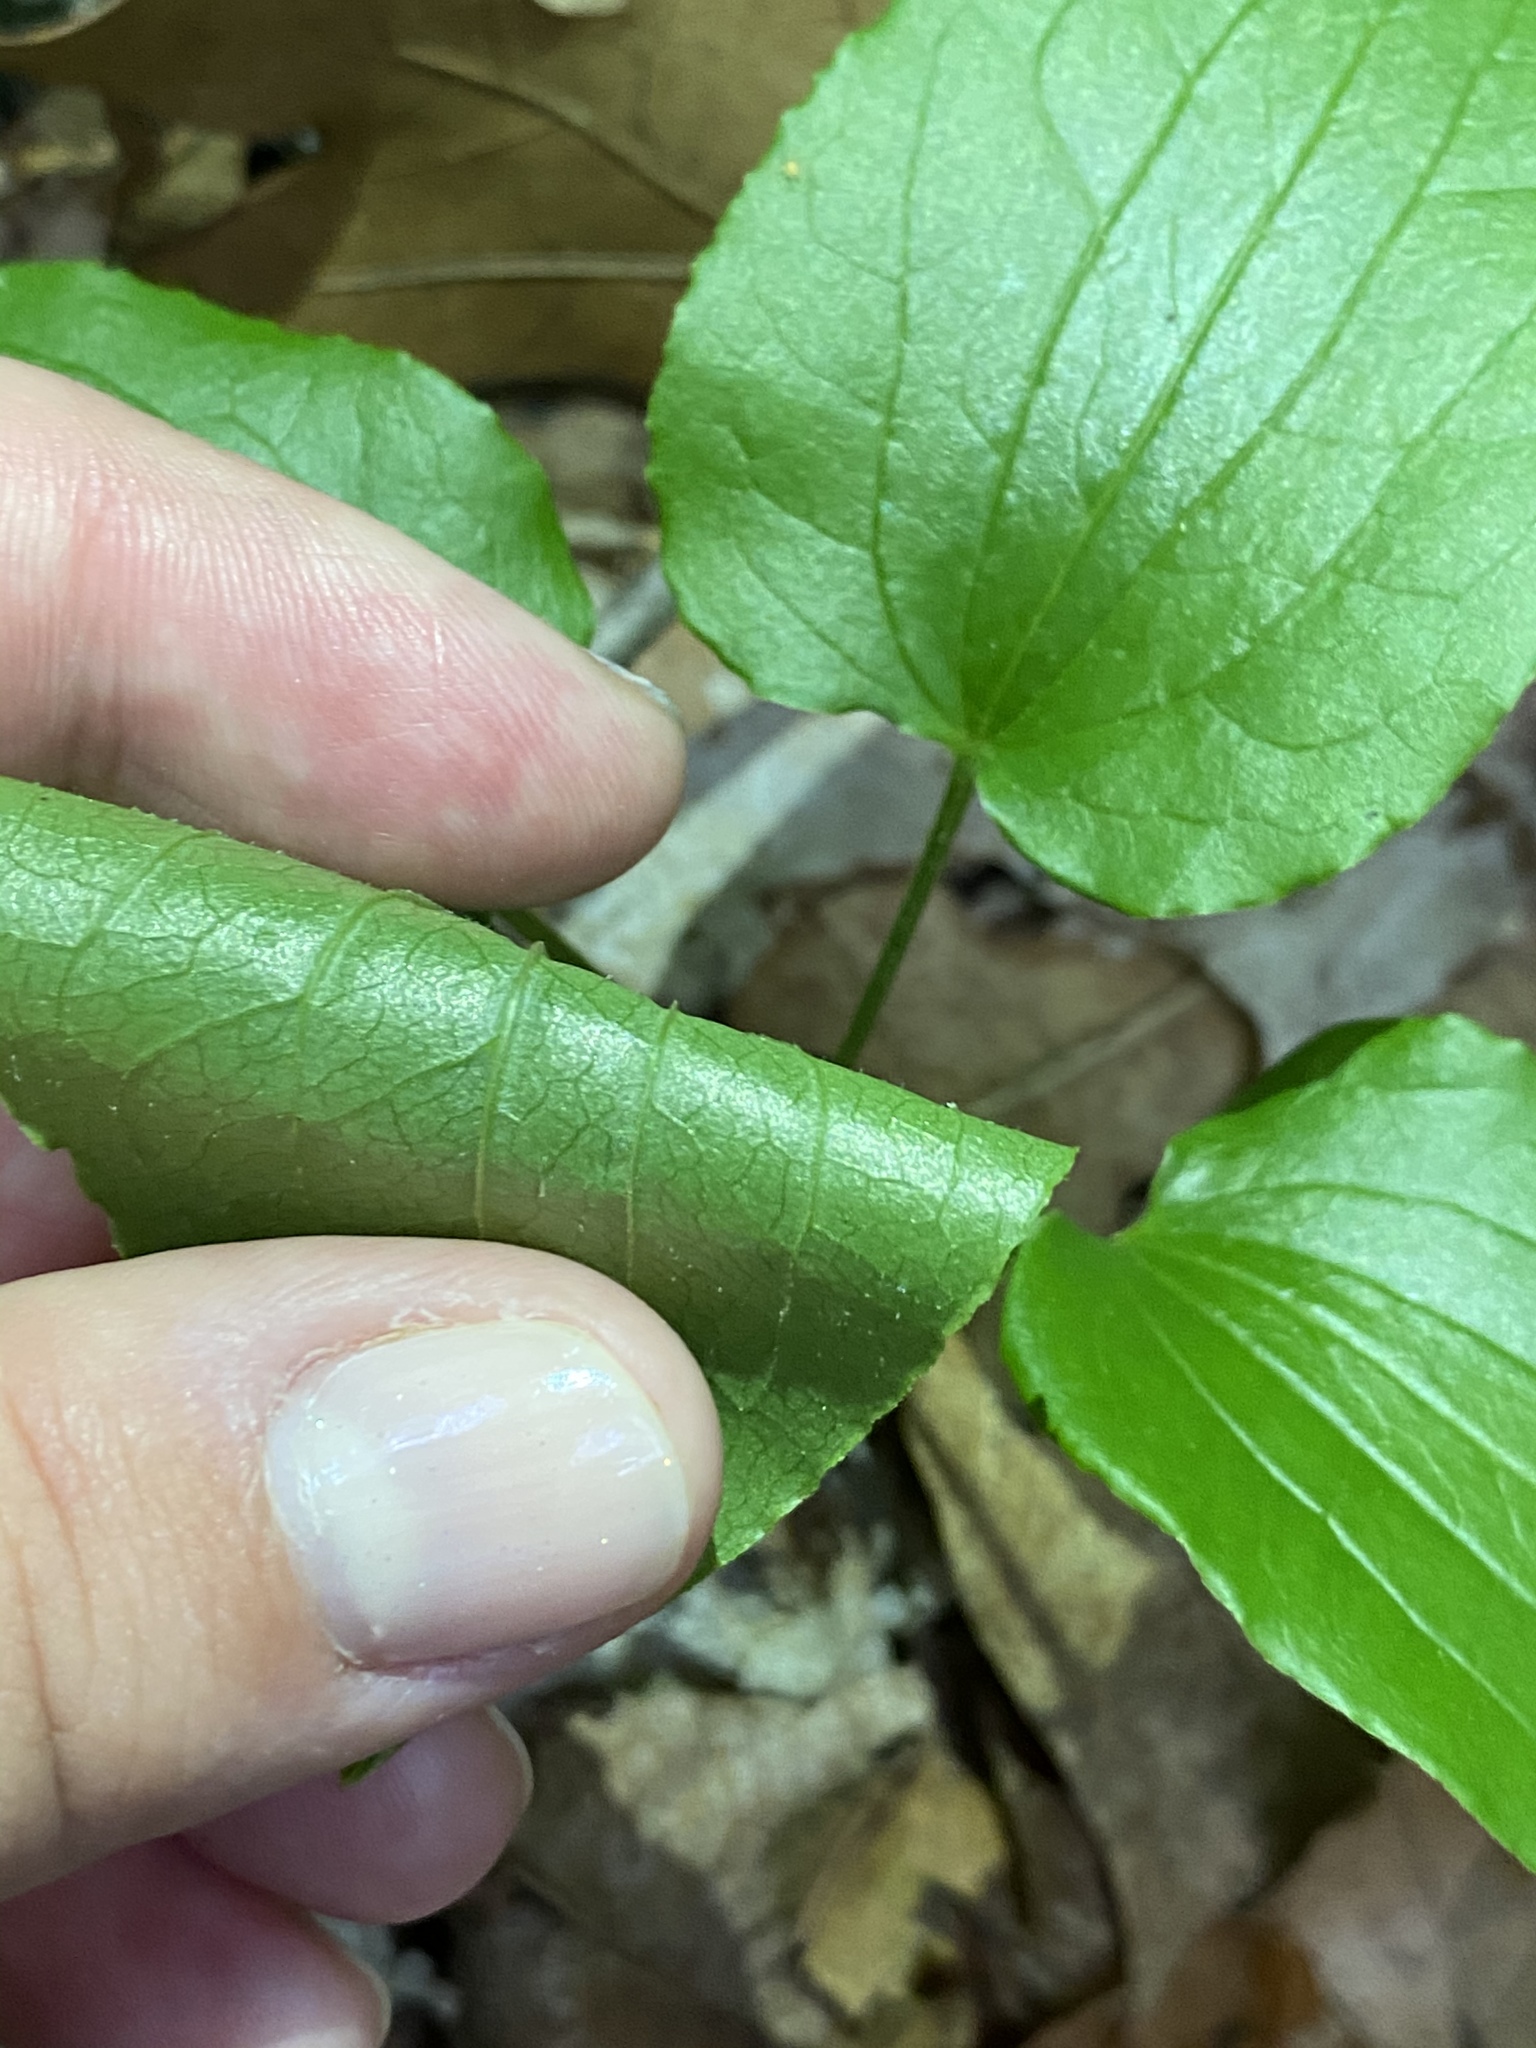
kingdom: Plantae
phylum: Tracheophyta
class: Liliopsida
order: Liliales
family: Smilacaceae
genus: Smilax
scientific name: Smilax pulverulenta
